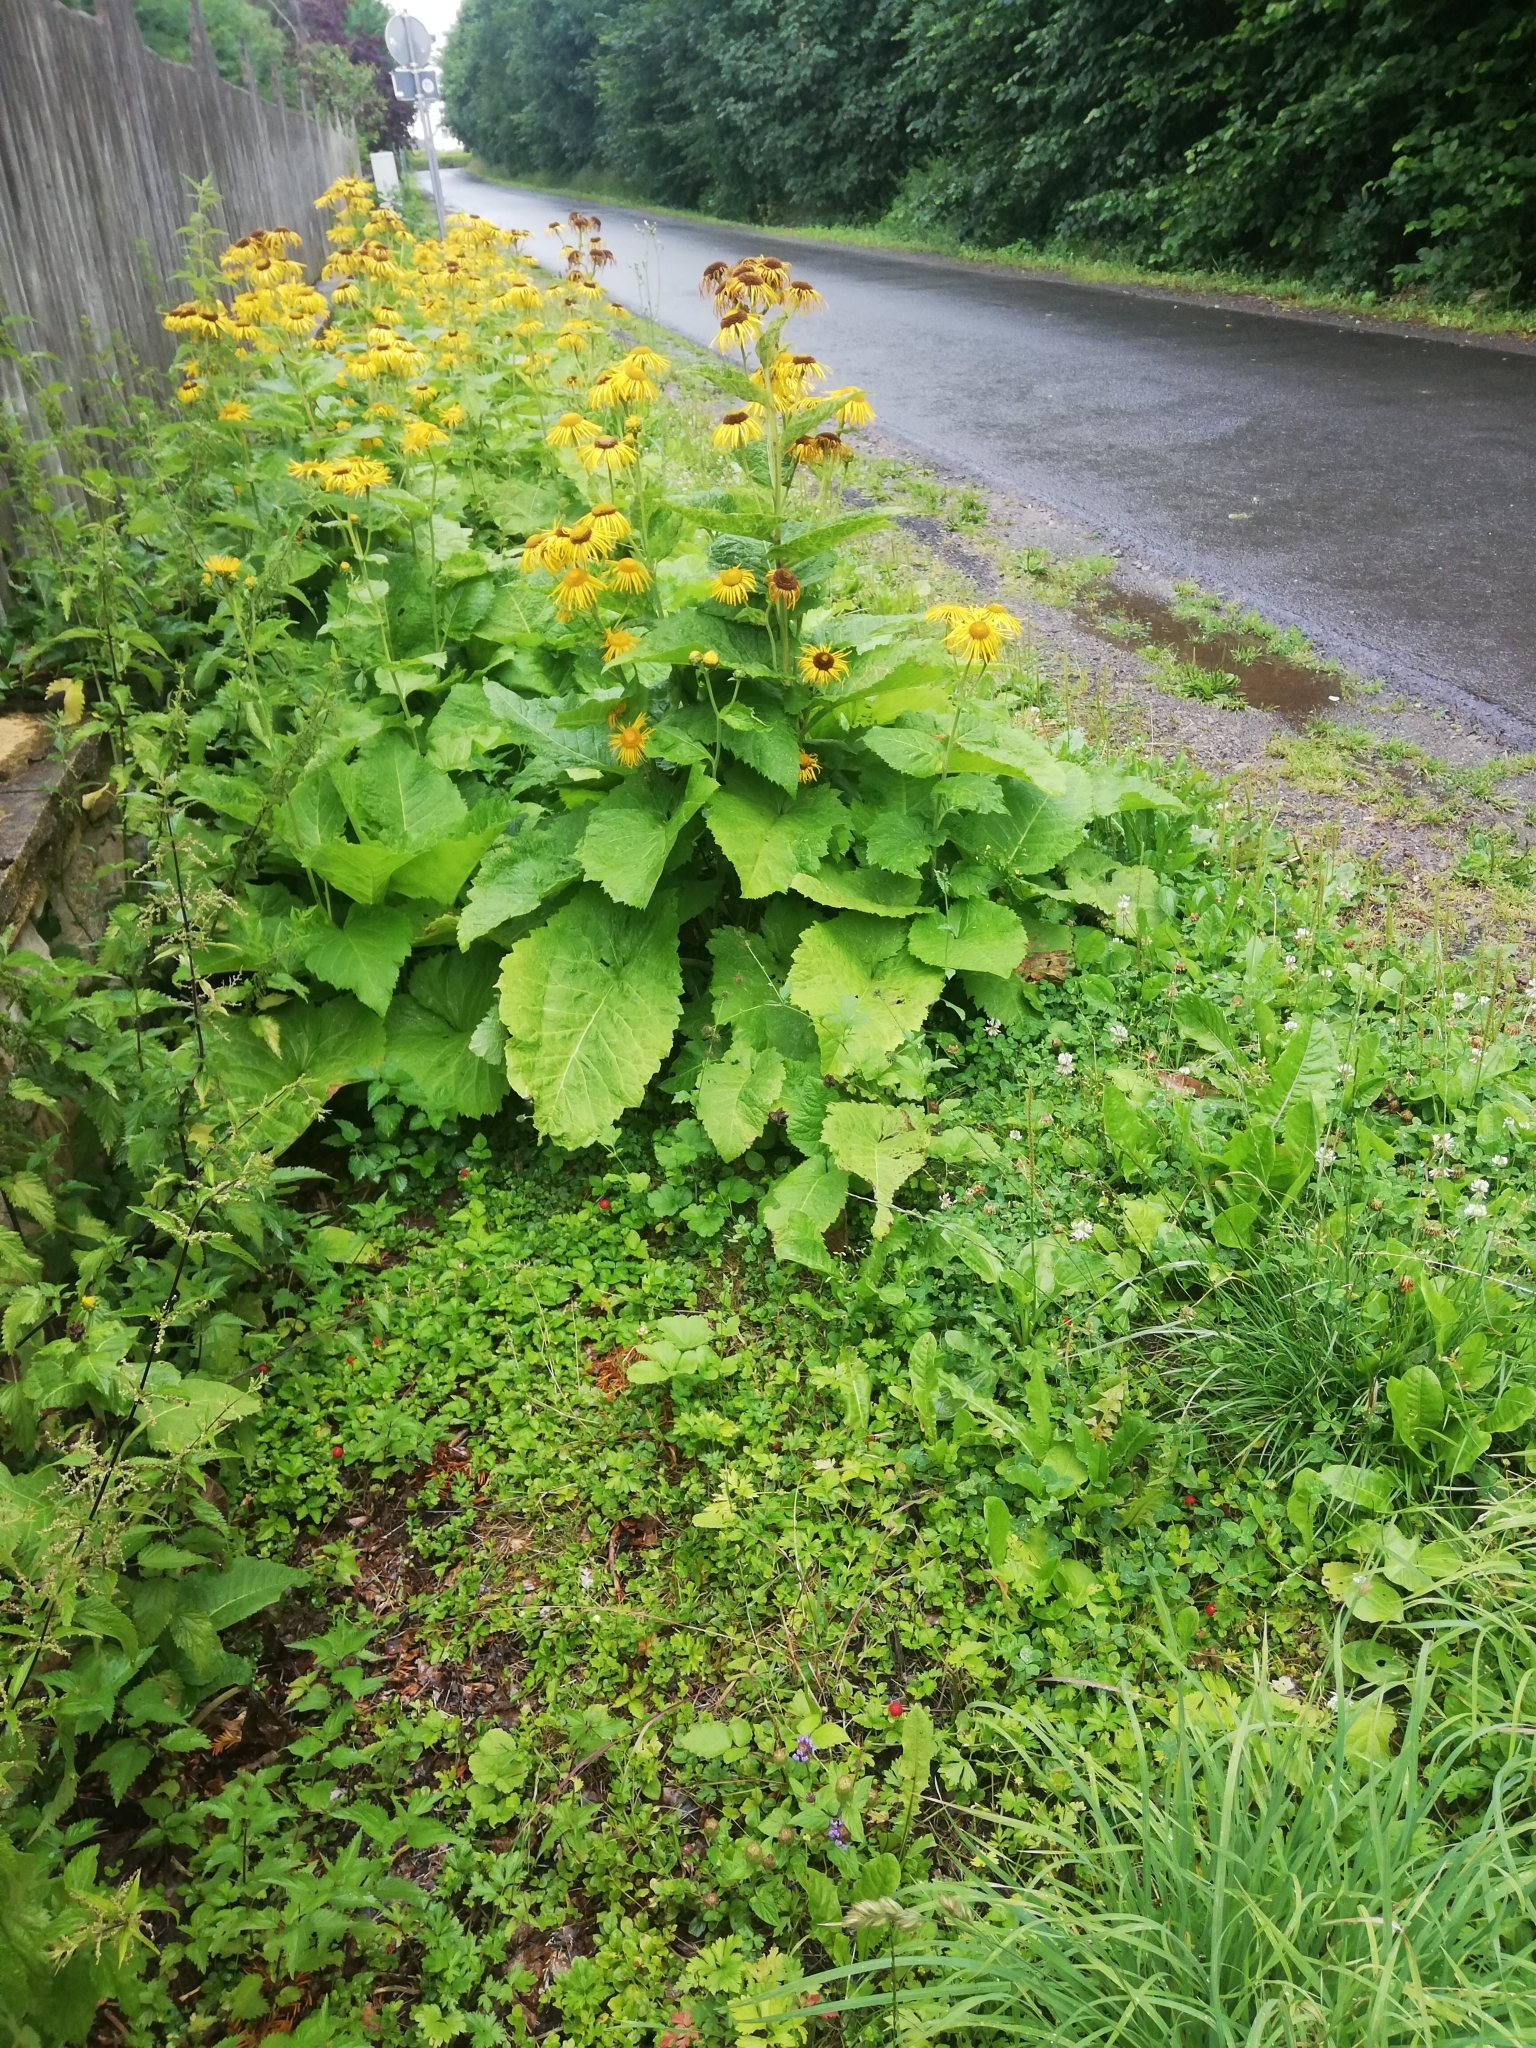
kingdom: Plantae
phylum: Tracheophyta
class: Magnoliopsida
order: Rosales
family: Rosaceae
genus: Potentilla
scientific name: Potentilla indica
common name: Yellow-flowered strawberry
